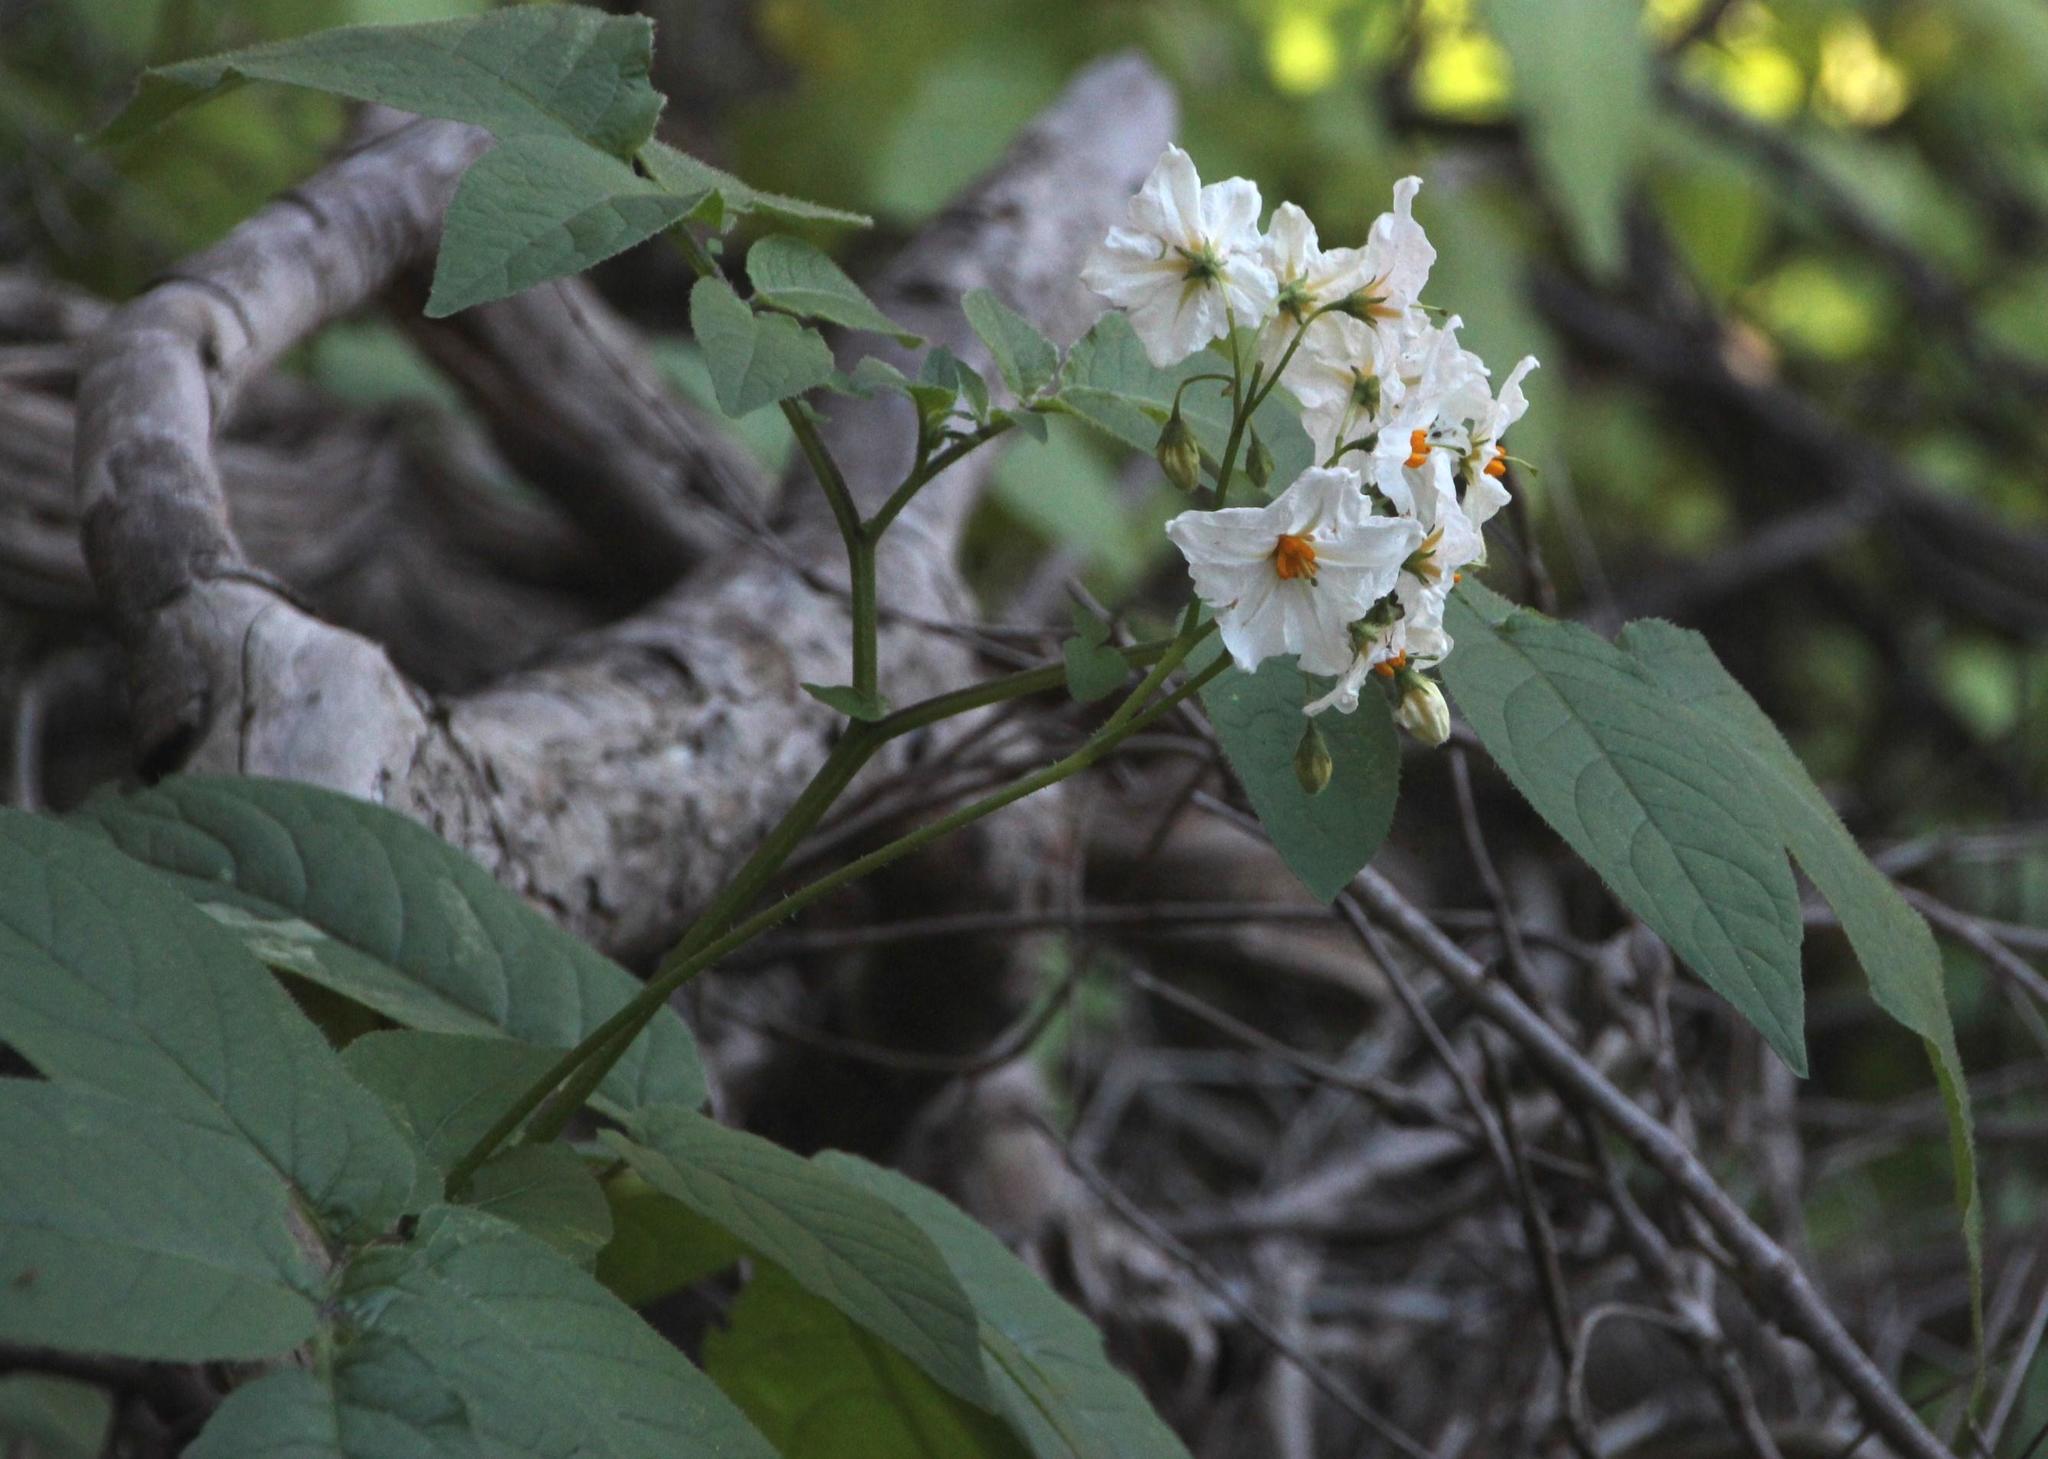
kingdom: Plantae
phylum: Tracheophyta
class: Magnoliopsida
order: Solanales
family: Solanaceae
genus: Solanum
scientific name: Solanum maglia
